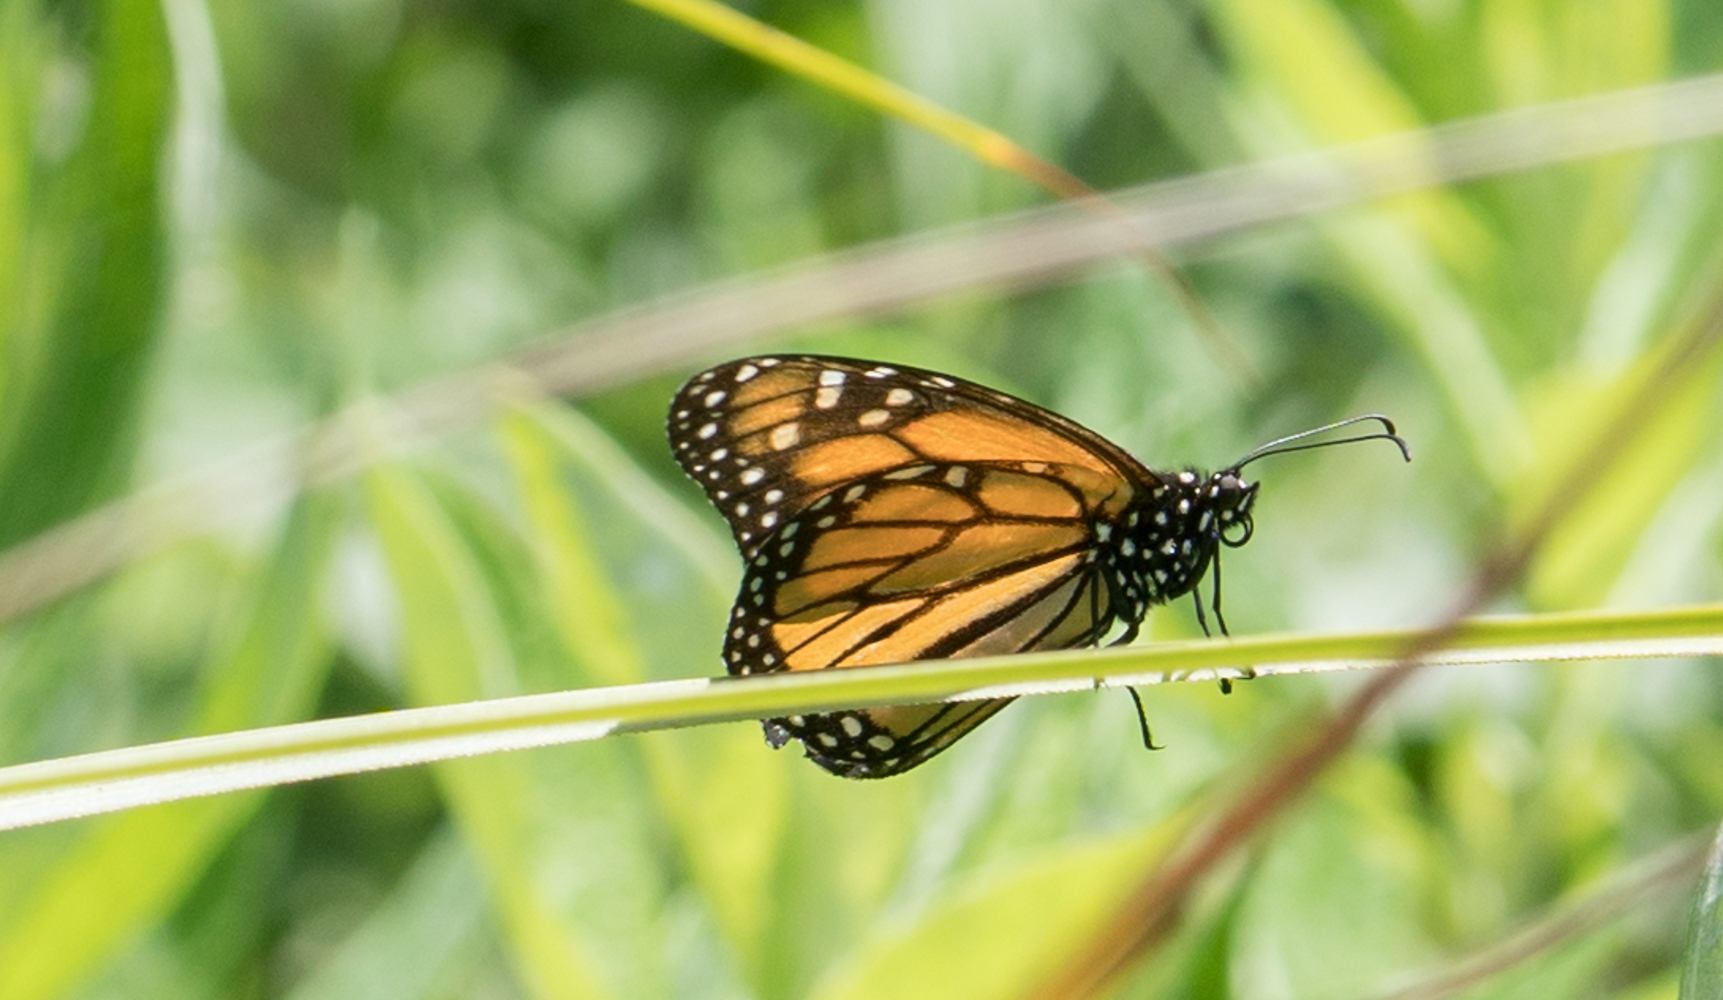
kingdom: Animalia
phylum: Arthropoda
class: Insecta
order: Lepidoptera
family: Nymphalidae
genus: Danaus
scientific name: Danaus plexippus
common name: Monarch
